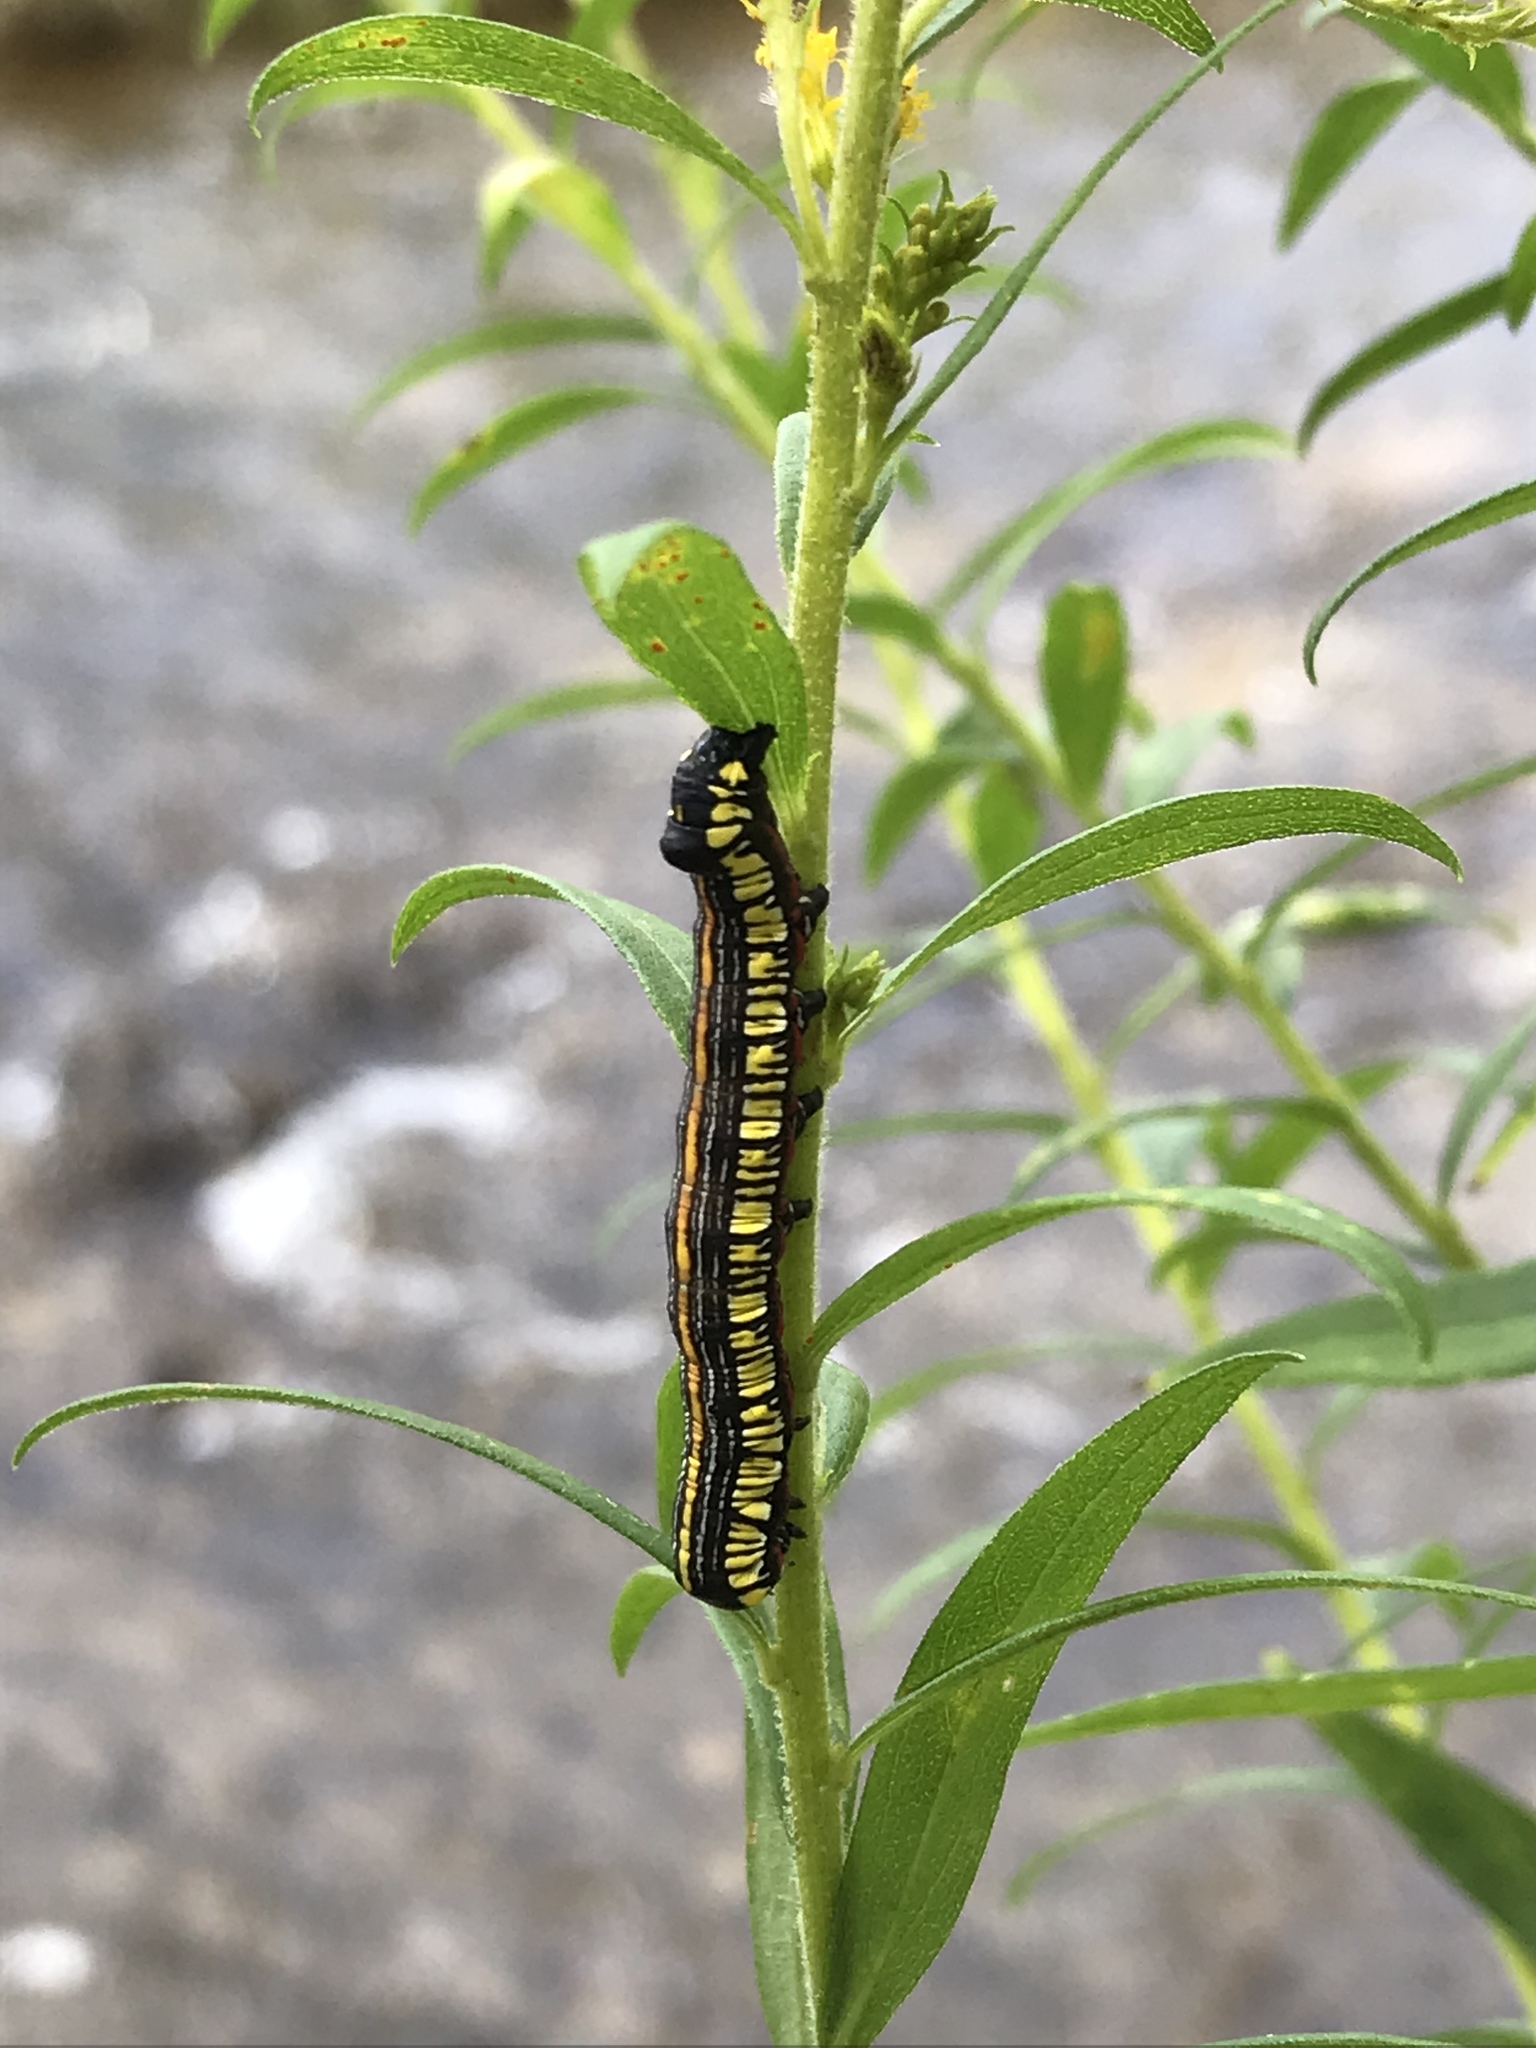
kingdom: Animalia
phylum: Arthropoda
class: Insecta
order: Lepidoptera
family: Noctuidae
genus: Cucullia
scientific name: Cucullia convexipennis
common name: Brown-hooded owlet
